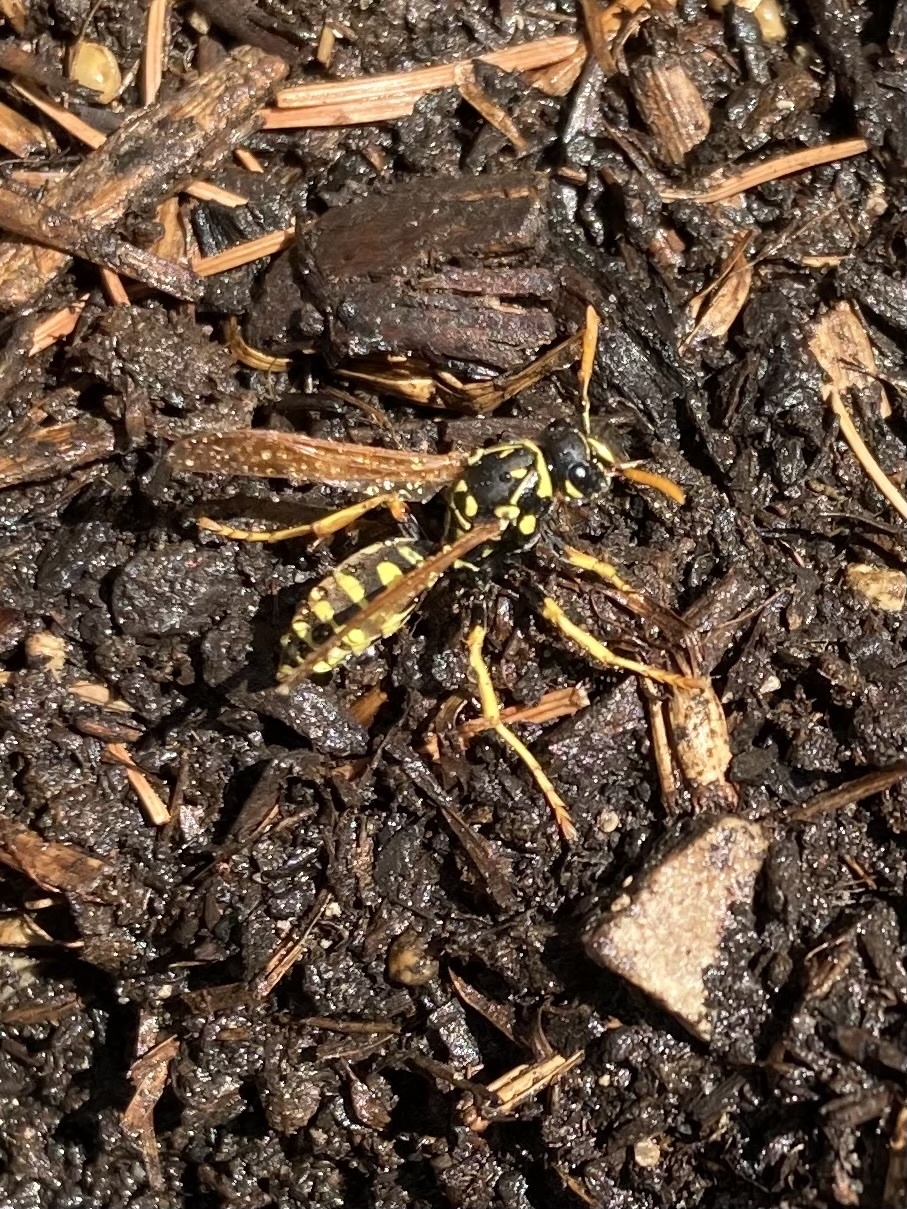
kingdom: Animalia
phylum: Arthropoda
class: Insecta
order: Hymenoptera
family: Eumenidae
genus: Polistes
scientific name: Polistes dominula
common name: Paper wasp
